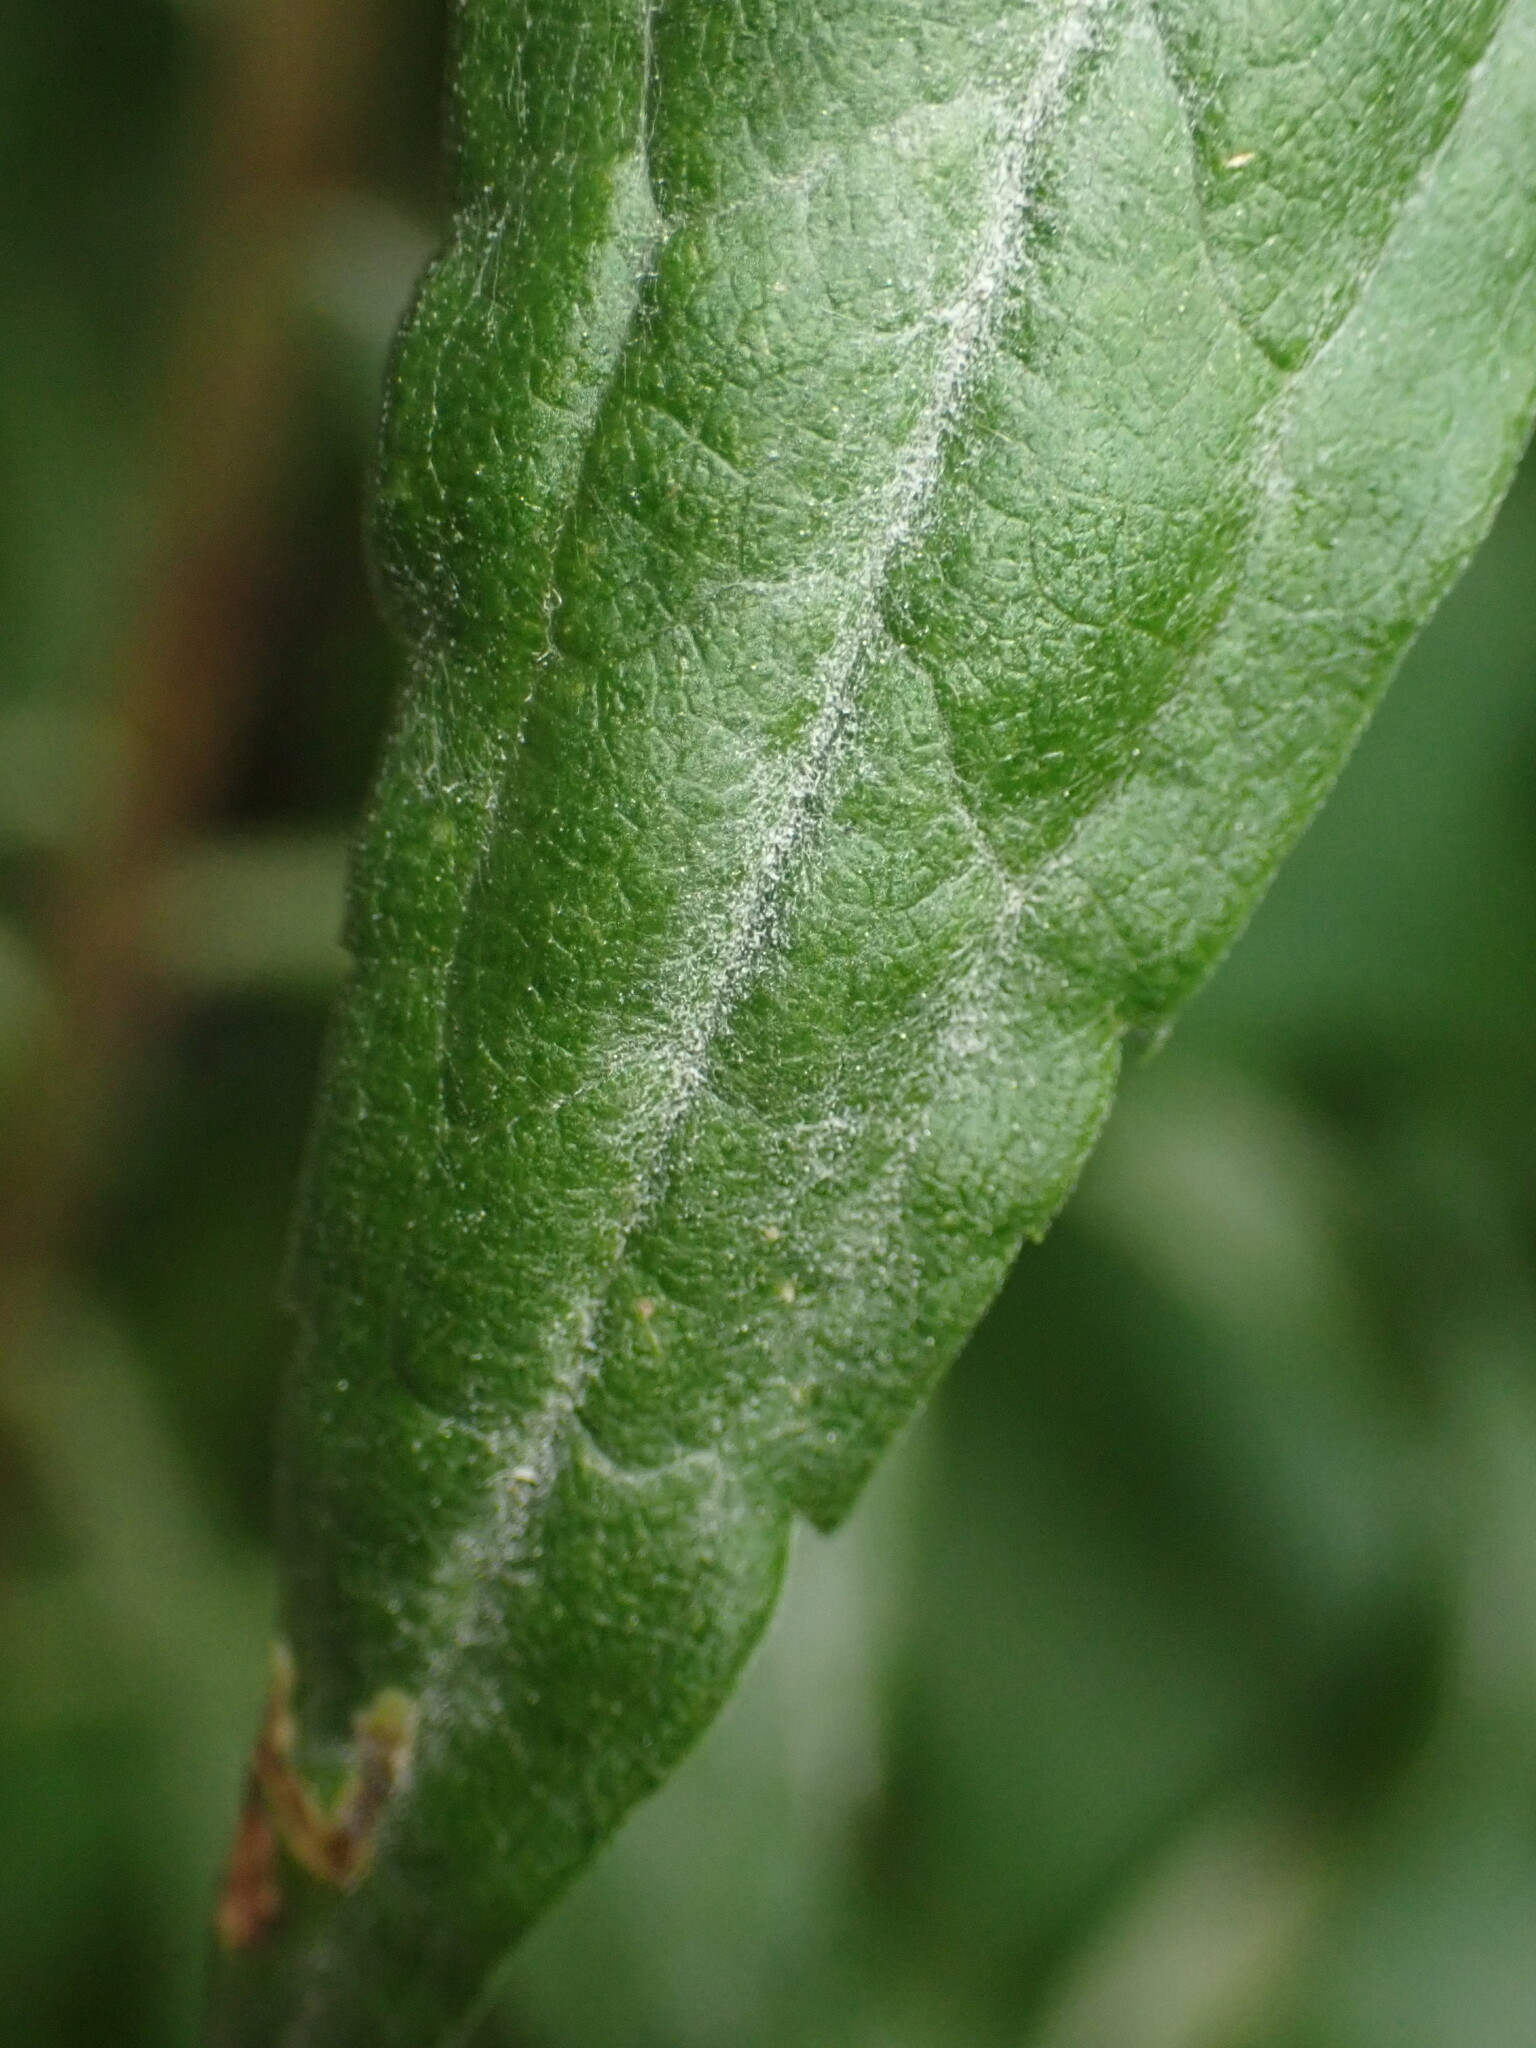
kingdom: Fungi
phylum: Ascomycota
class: Leotiomycetes
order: Helotiales
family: Erysiphaceae
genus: Golovinomyces
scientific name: Golovinomyces asterum
